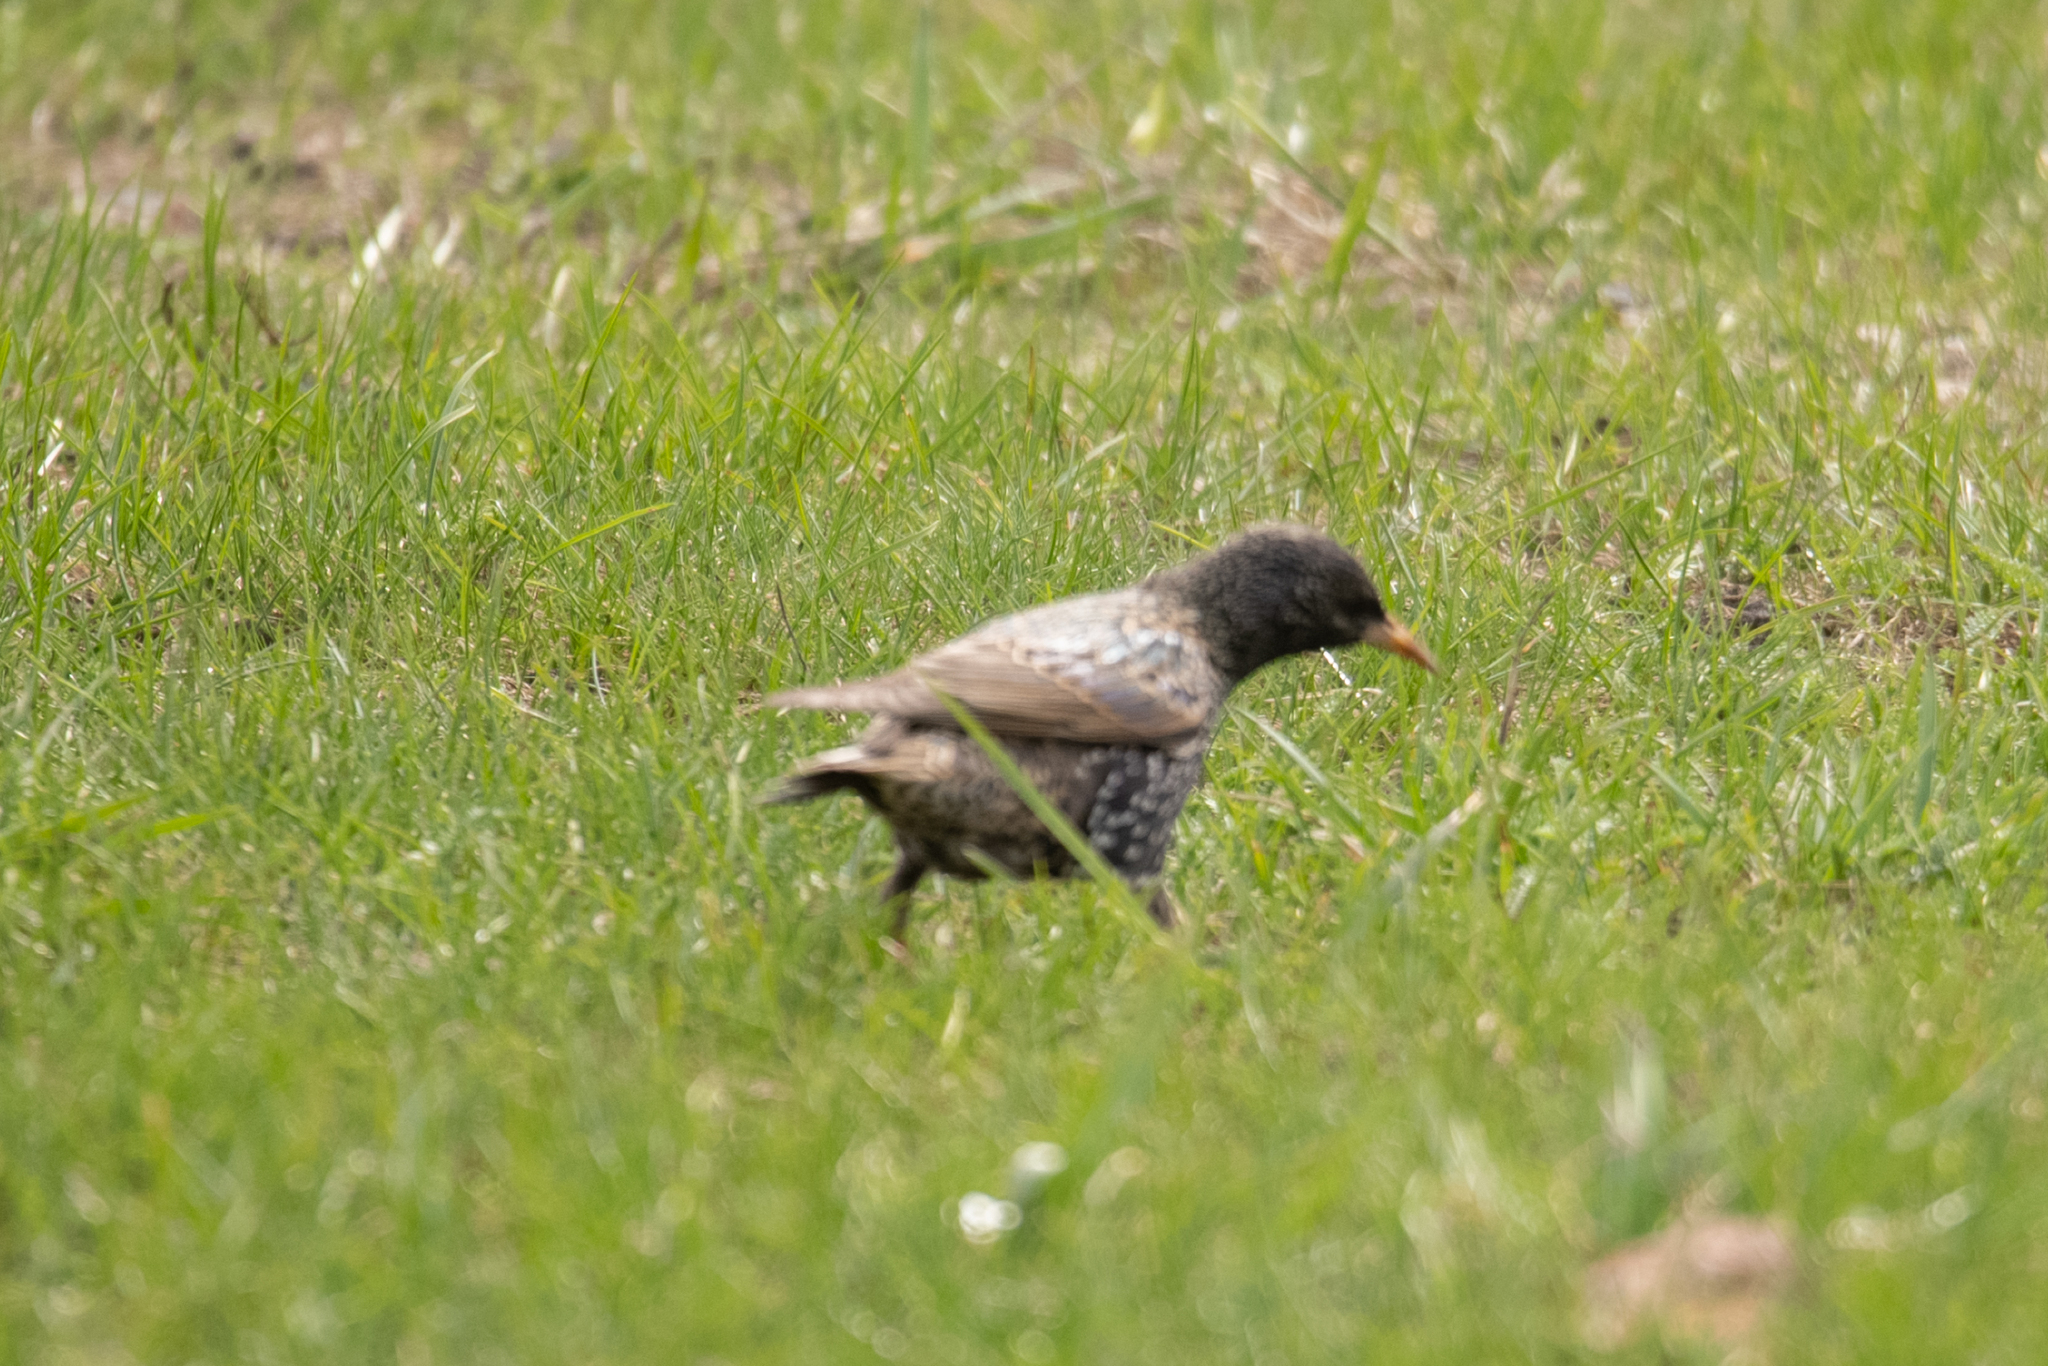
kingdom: Animalia
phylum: Chordata
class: Aves
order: Passeriformes
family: Sturnidae
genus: Sturnus
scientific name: Sturnus vulgaris
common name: Common starling
